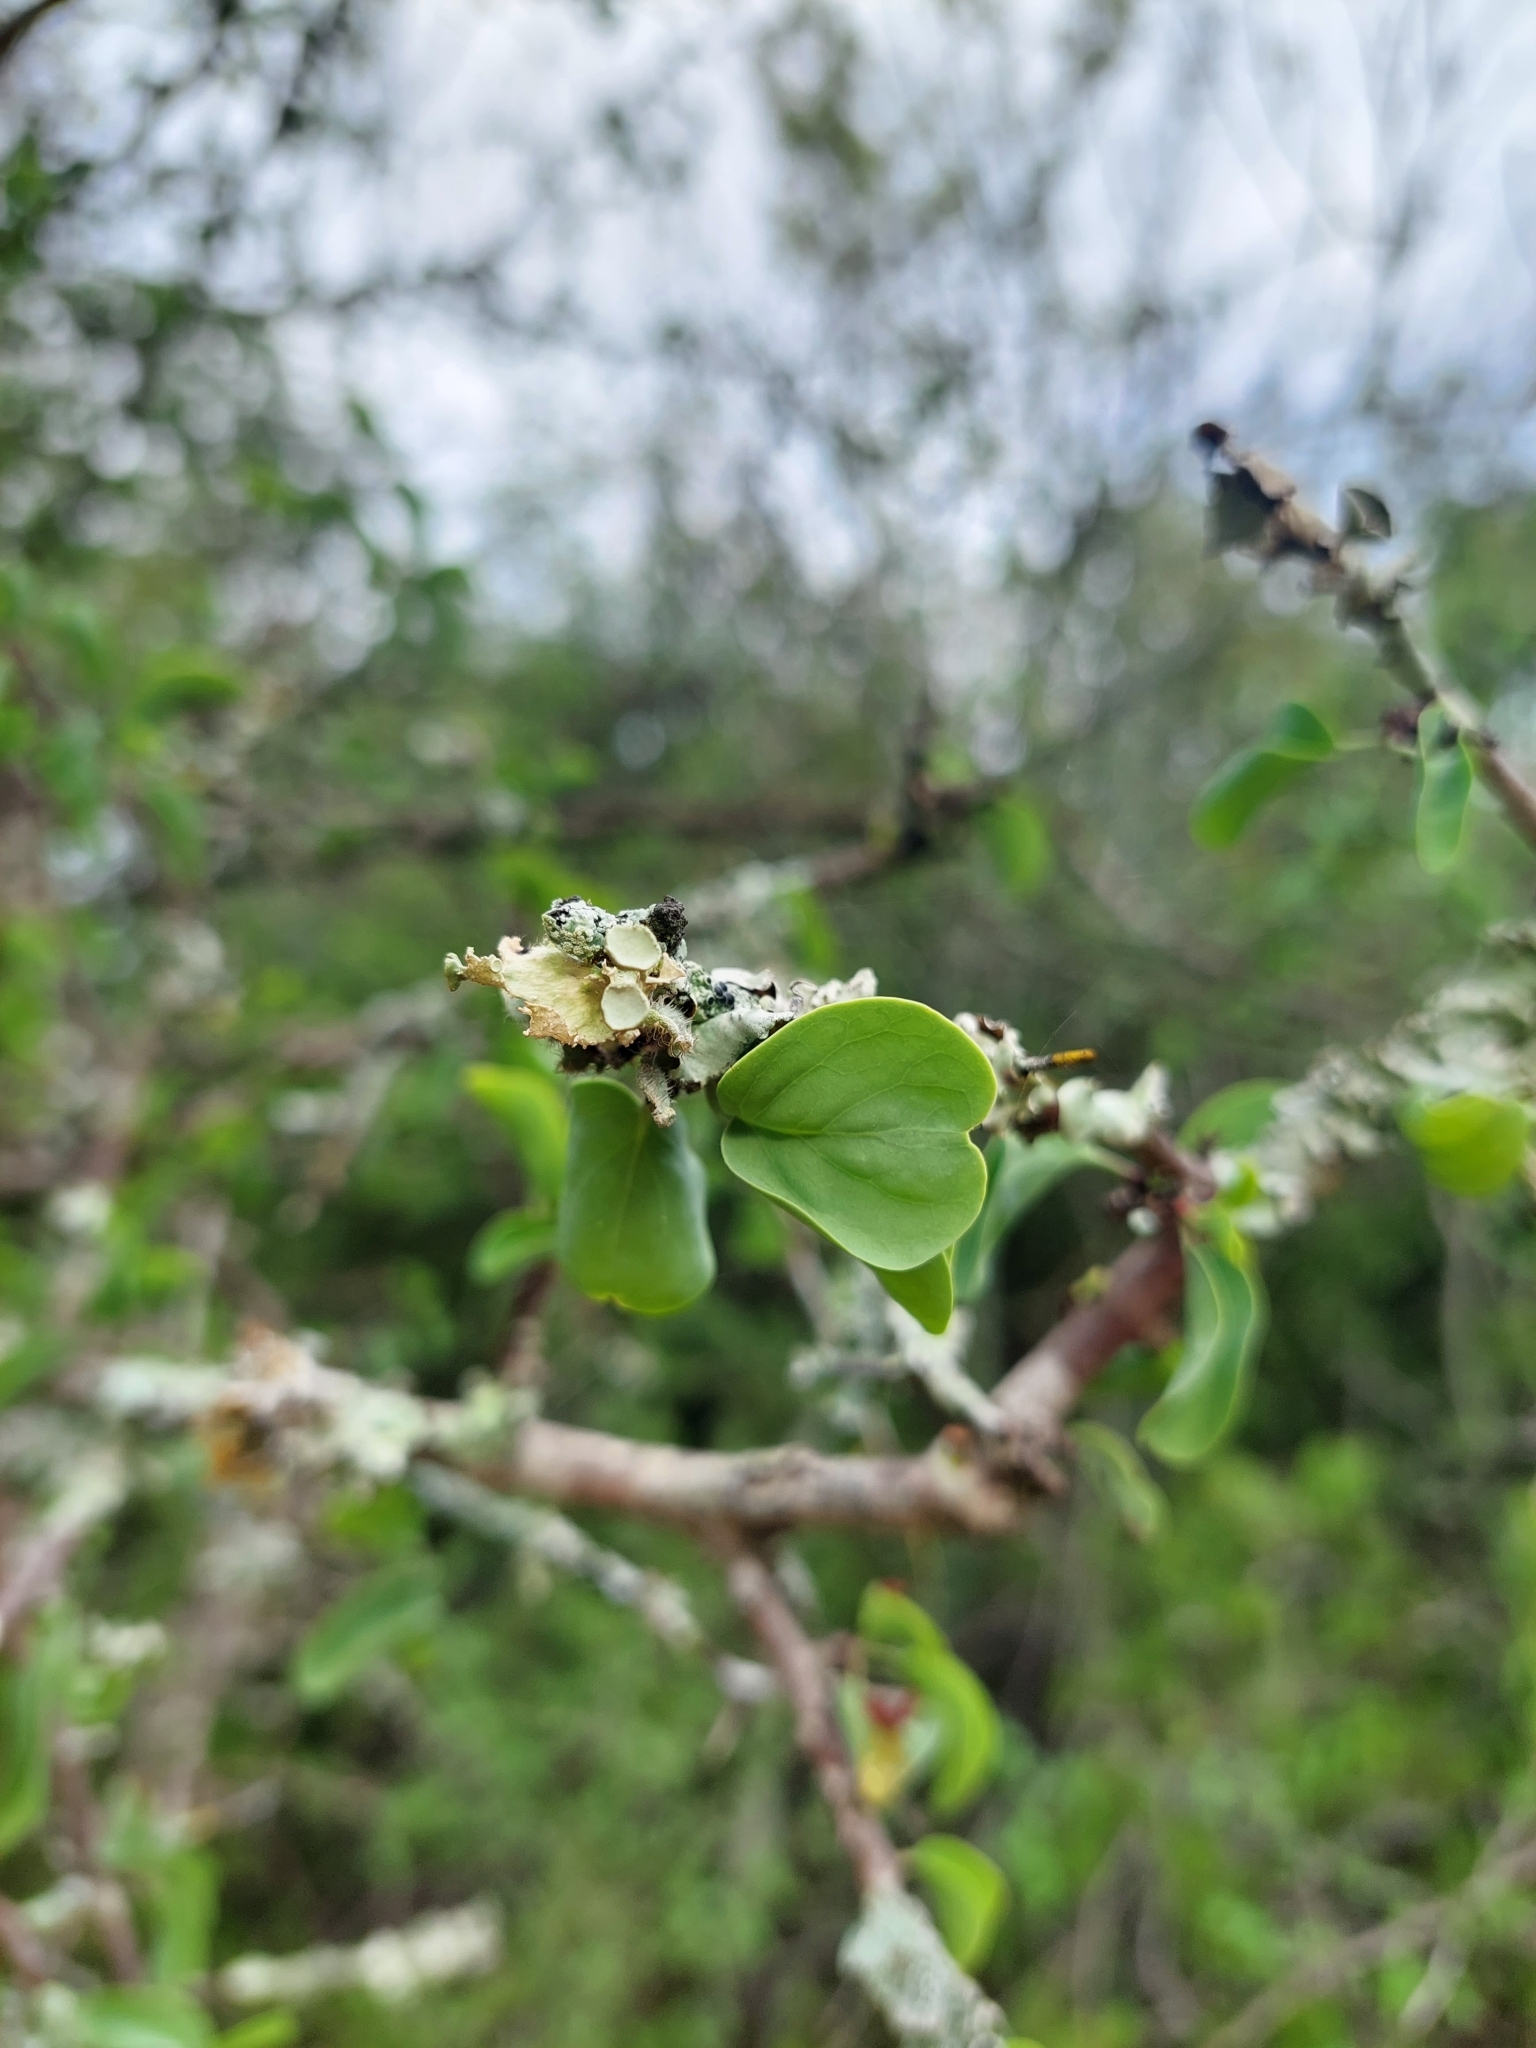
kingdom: Plantae
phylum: Tracheophyta
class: Magnoliopsida
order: Santalales
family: Ximeniaceae
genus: Ximenia
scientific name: Ximenia americana
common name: Tallowwood
